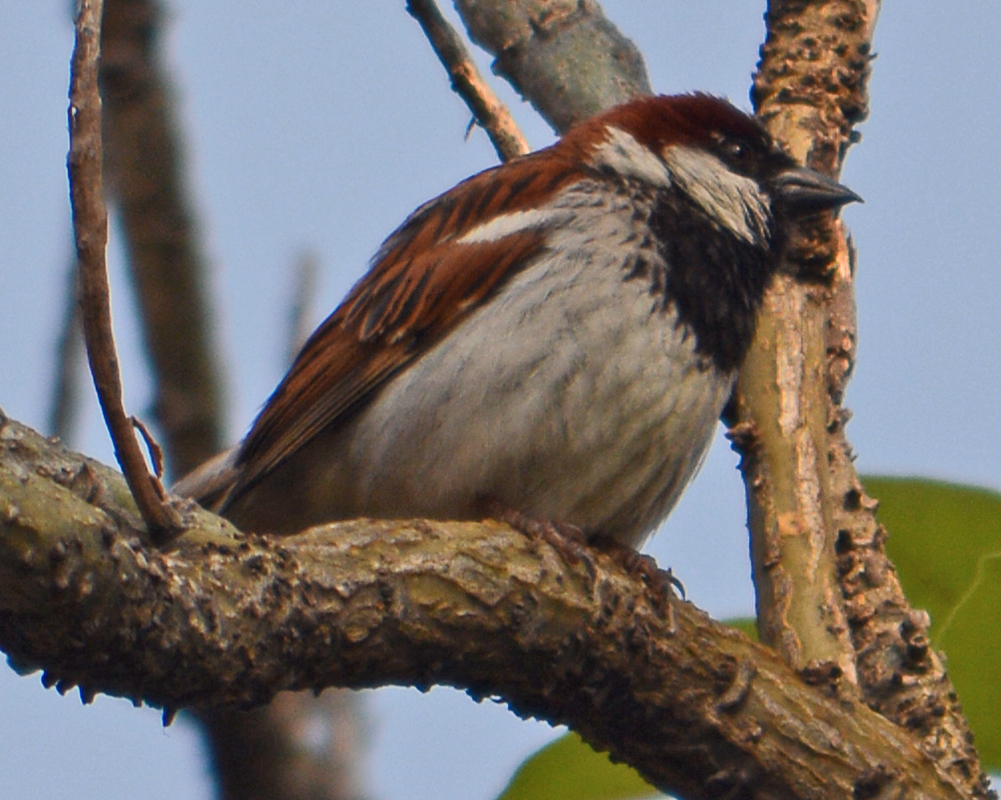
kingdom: Animalia
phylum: Chordata
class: Aves
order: Passeriformes
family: Passeridae
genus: Passer
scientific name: Passer domesticus
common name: House sparrow
